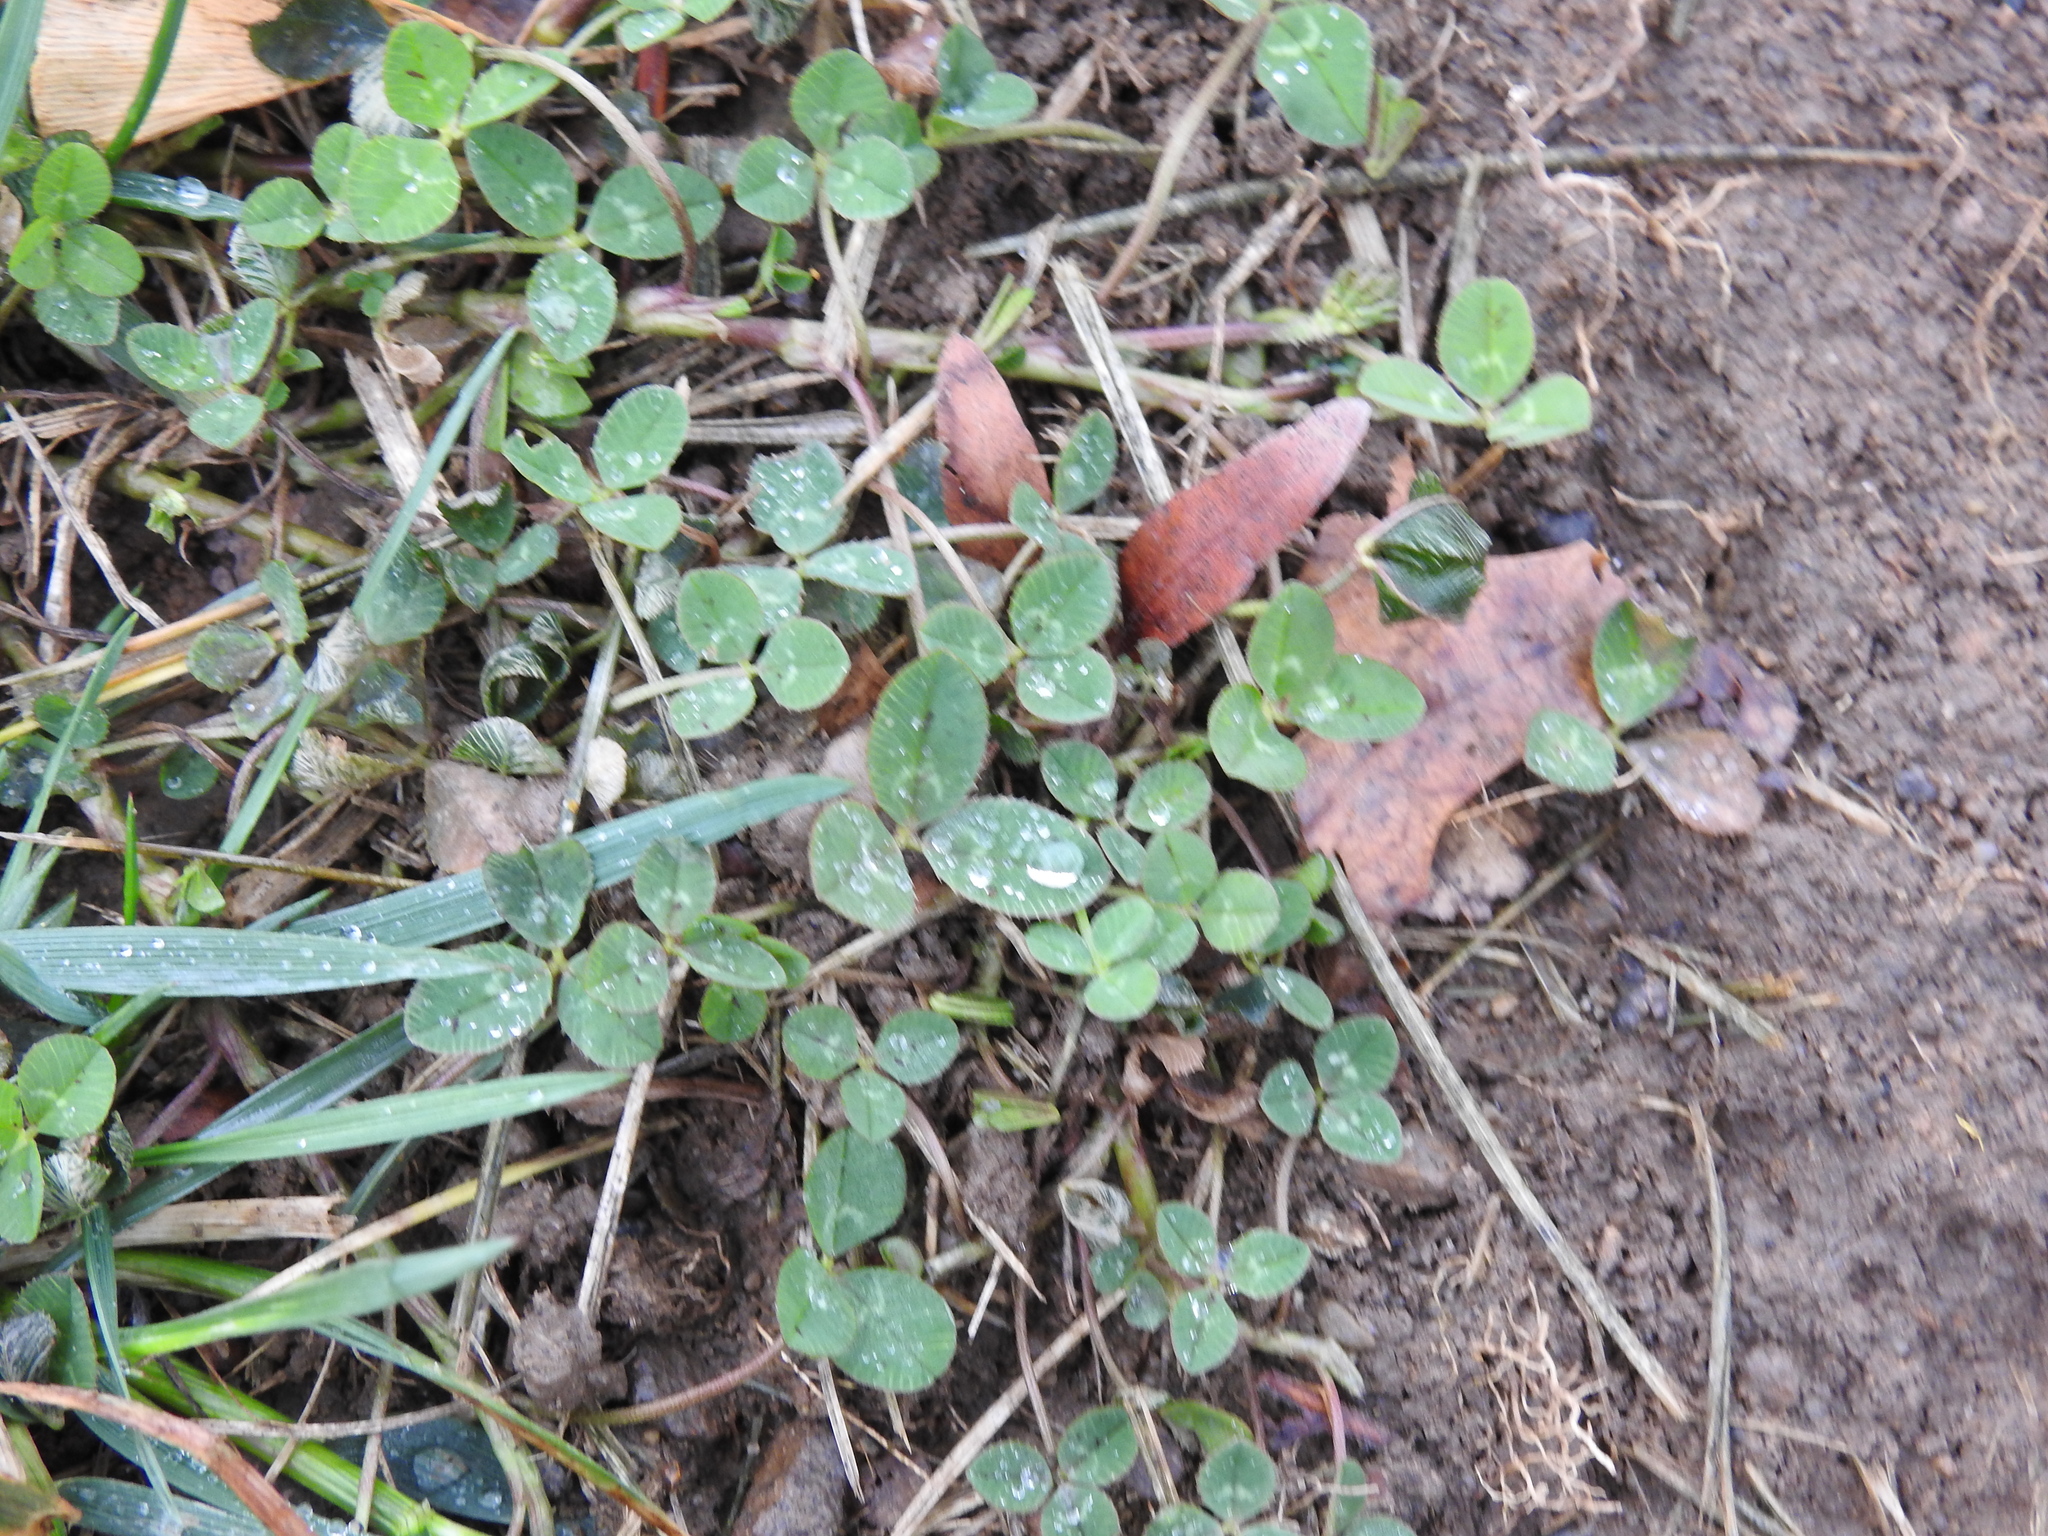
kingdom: Plantae
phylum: Tracheophyta
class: Magnoliopsida
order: Fabales
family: Fabaceae
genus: Trifolium
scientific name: Trifolium repens
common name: White clover
